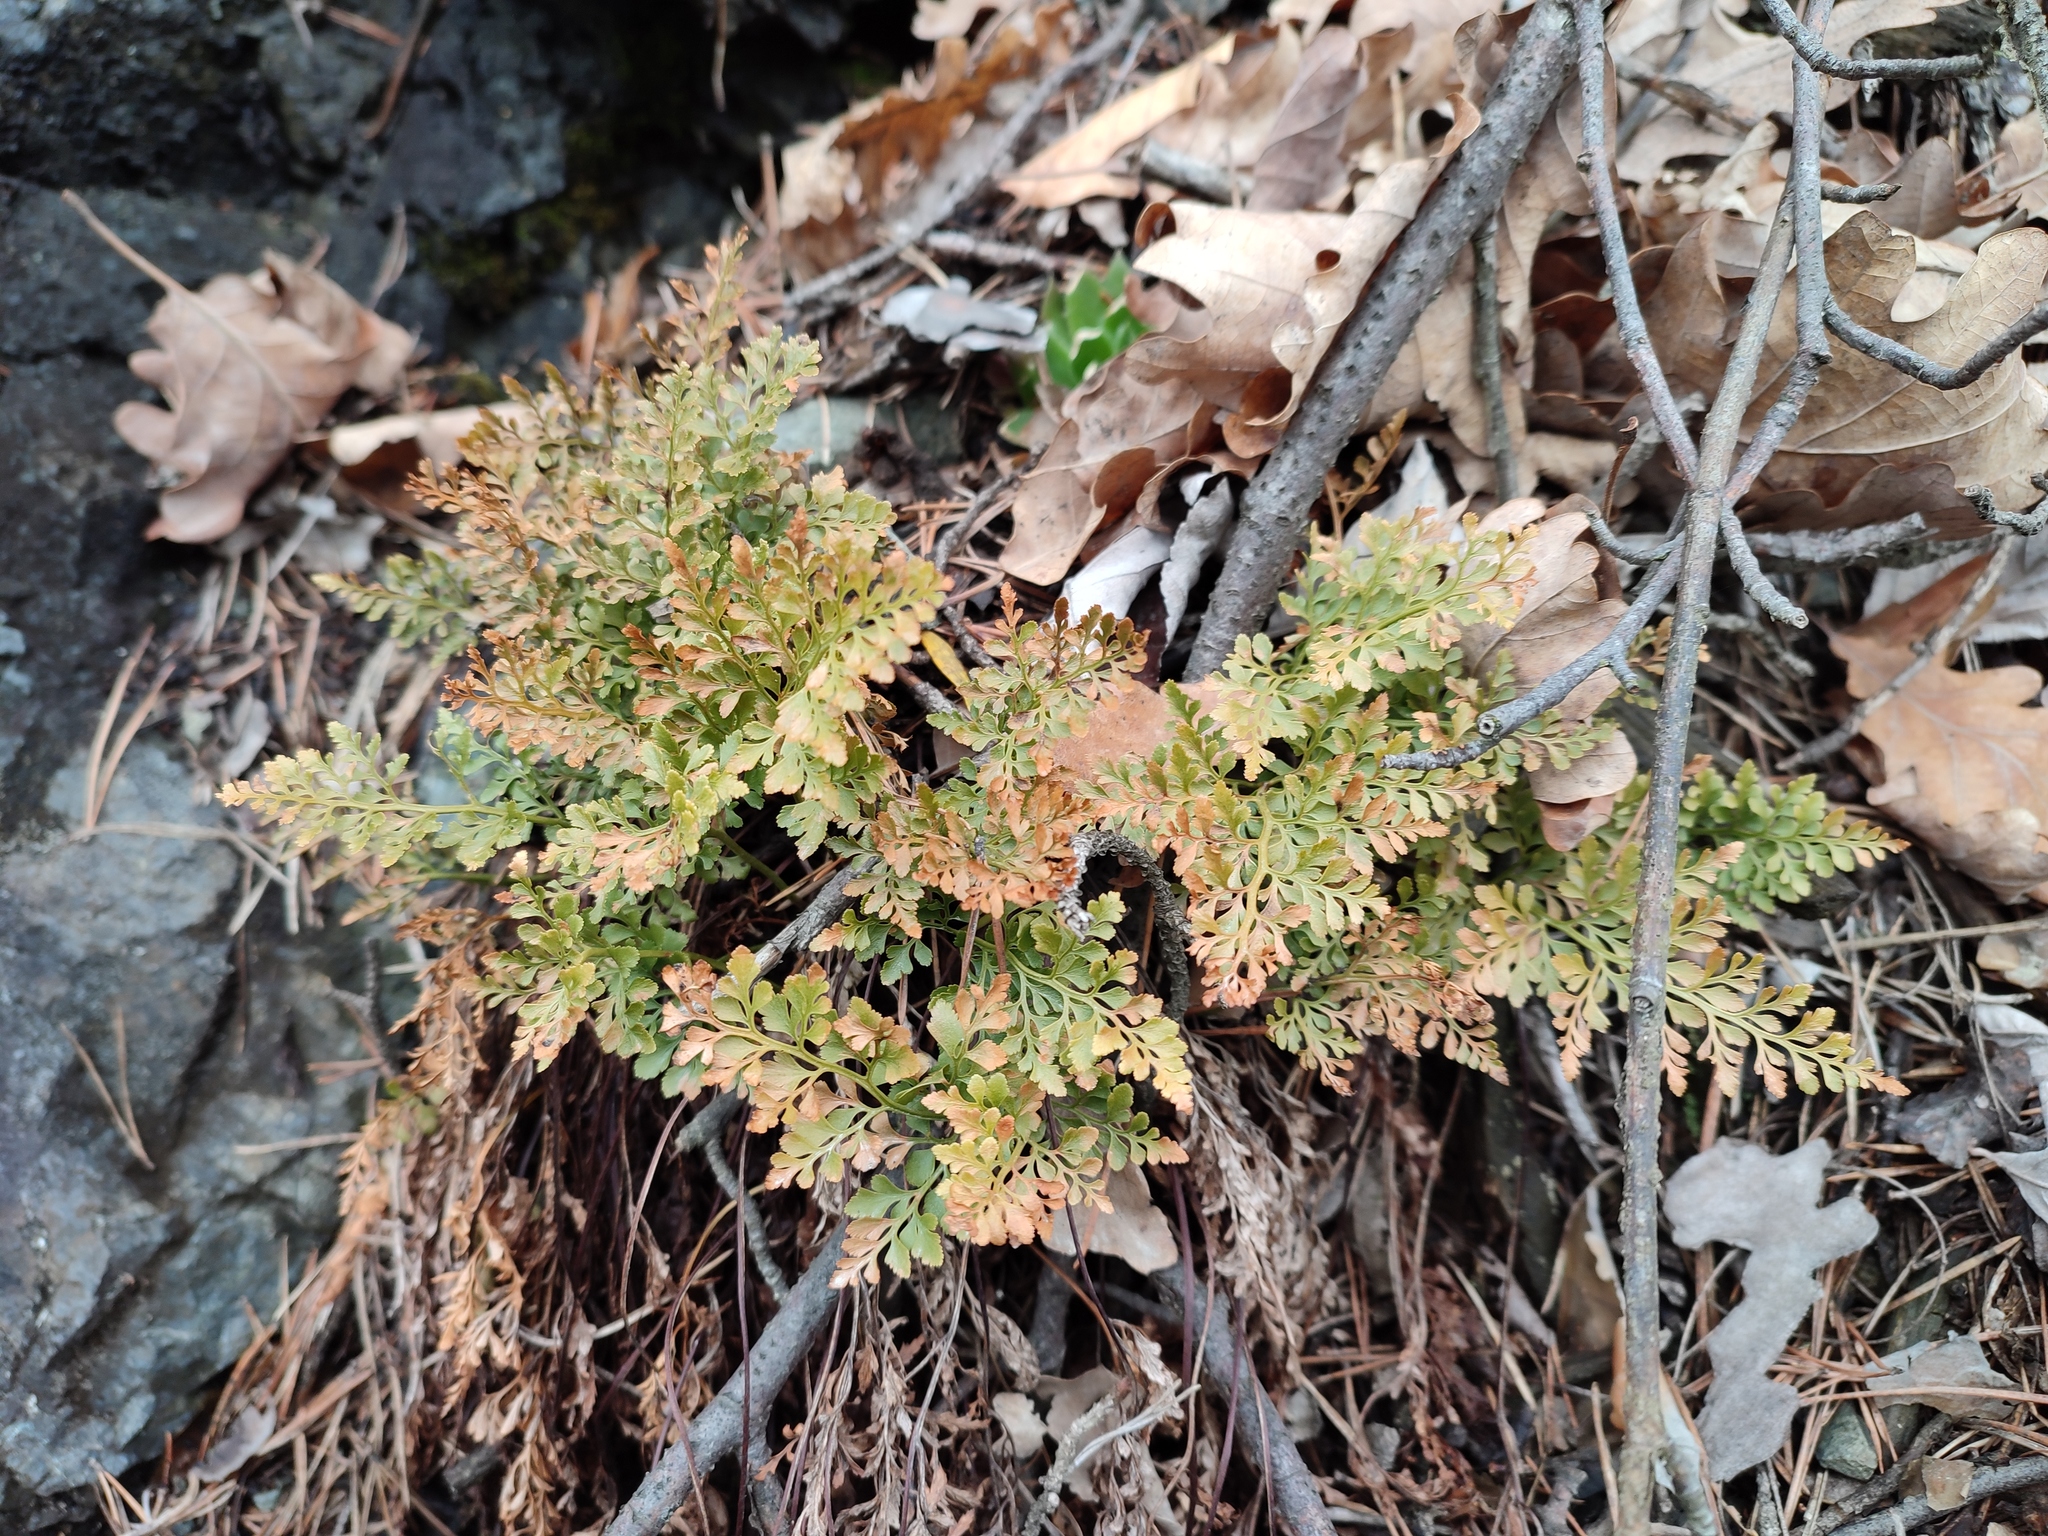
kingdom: Plantae
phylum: Tracheophyta
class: Polypodiopsida
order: Polypodiales
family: Aspleniaceae
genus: Asplenium
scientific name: Asplenium cuneifolium
